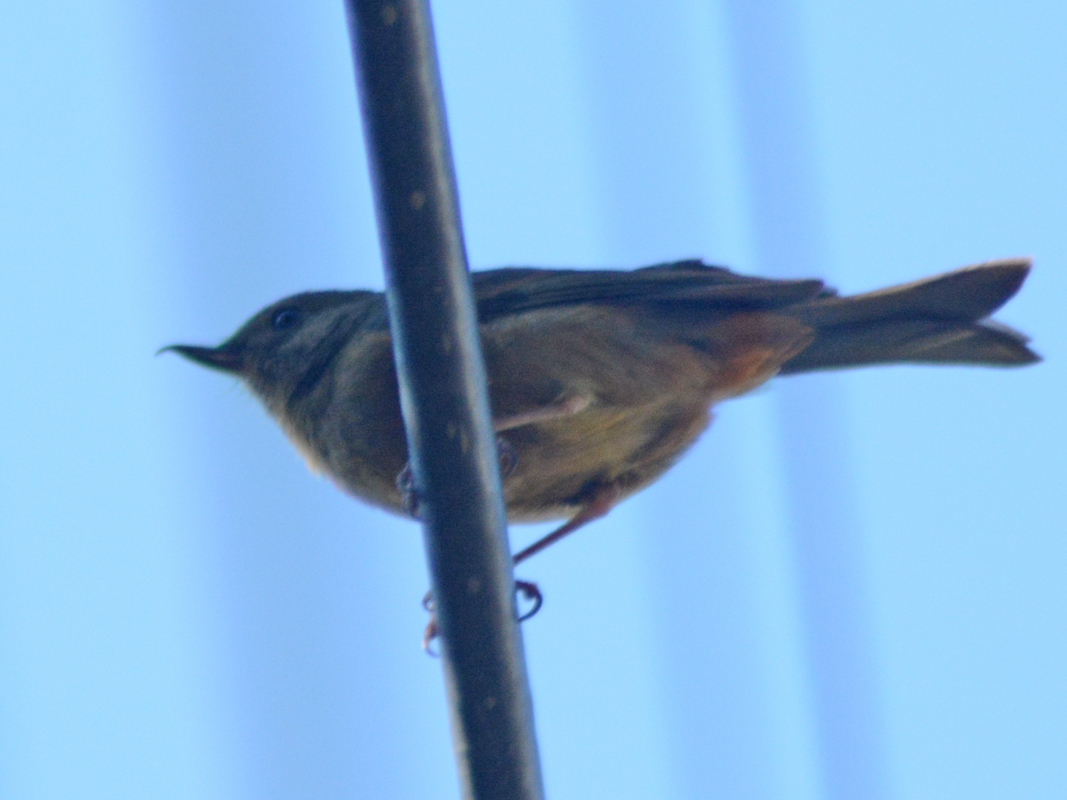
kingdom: Animalia
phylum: Chordata
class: Aves
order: Passeriformes
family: Thraupidae
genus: Diglossa
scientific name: Diglossa baritula
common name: Cinnamon-bellied flowerpiercer
